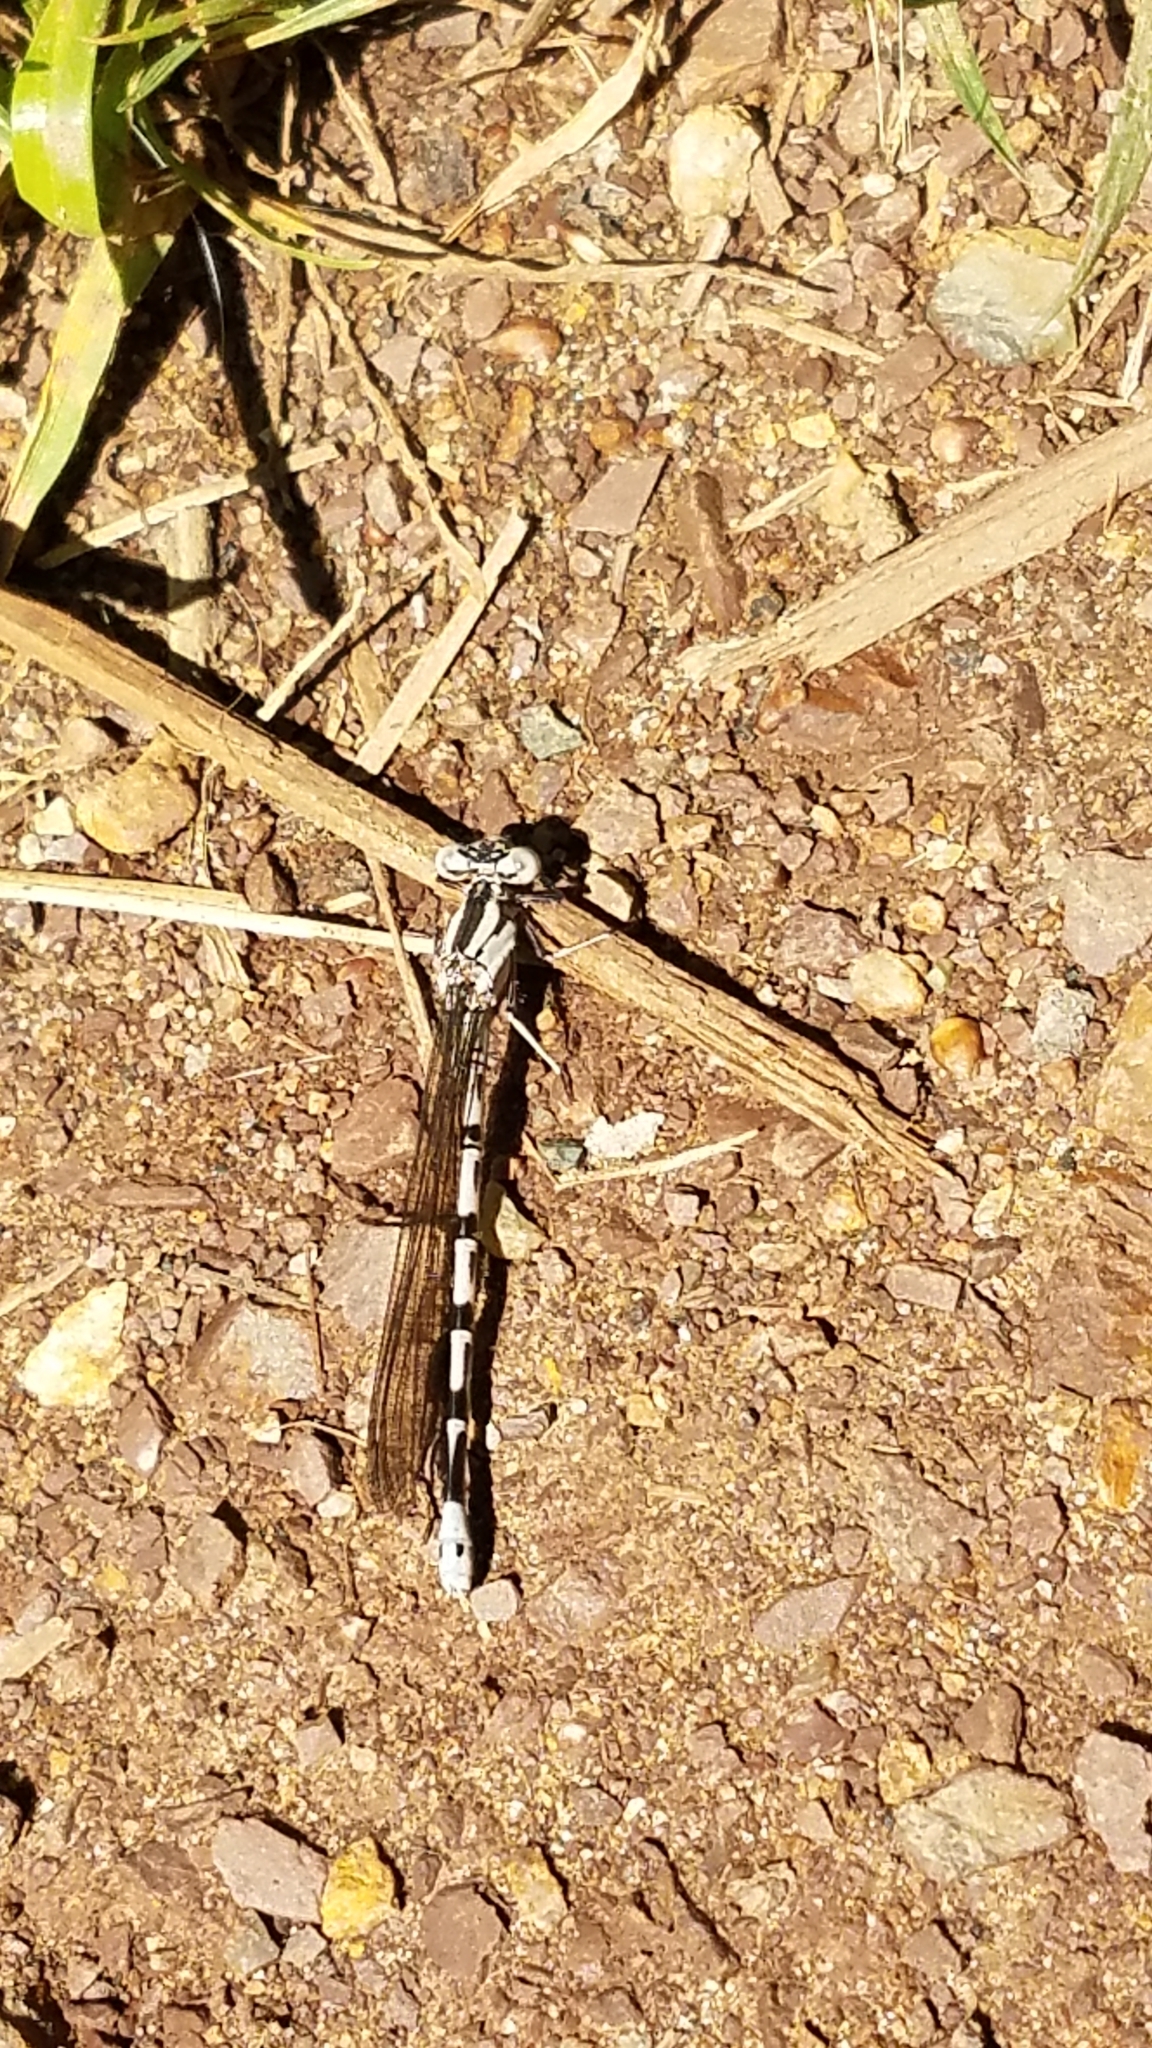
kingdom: Animalia
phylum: Arthropoda
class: Insecta
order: Odonata
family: Coenagrionidae
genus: Argia
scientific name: Argia vivida
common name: Vivid dancer
